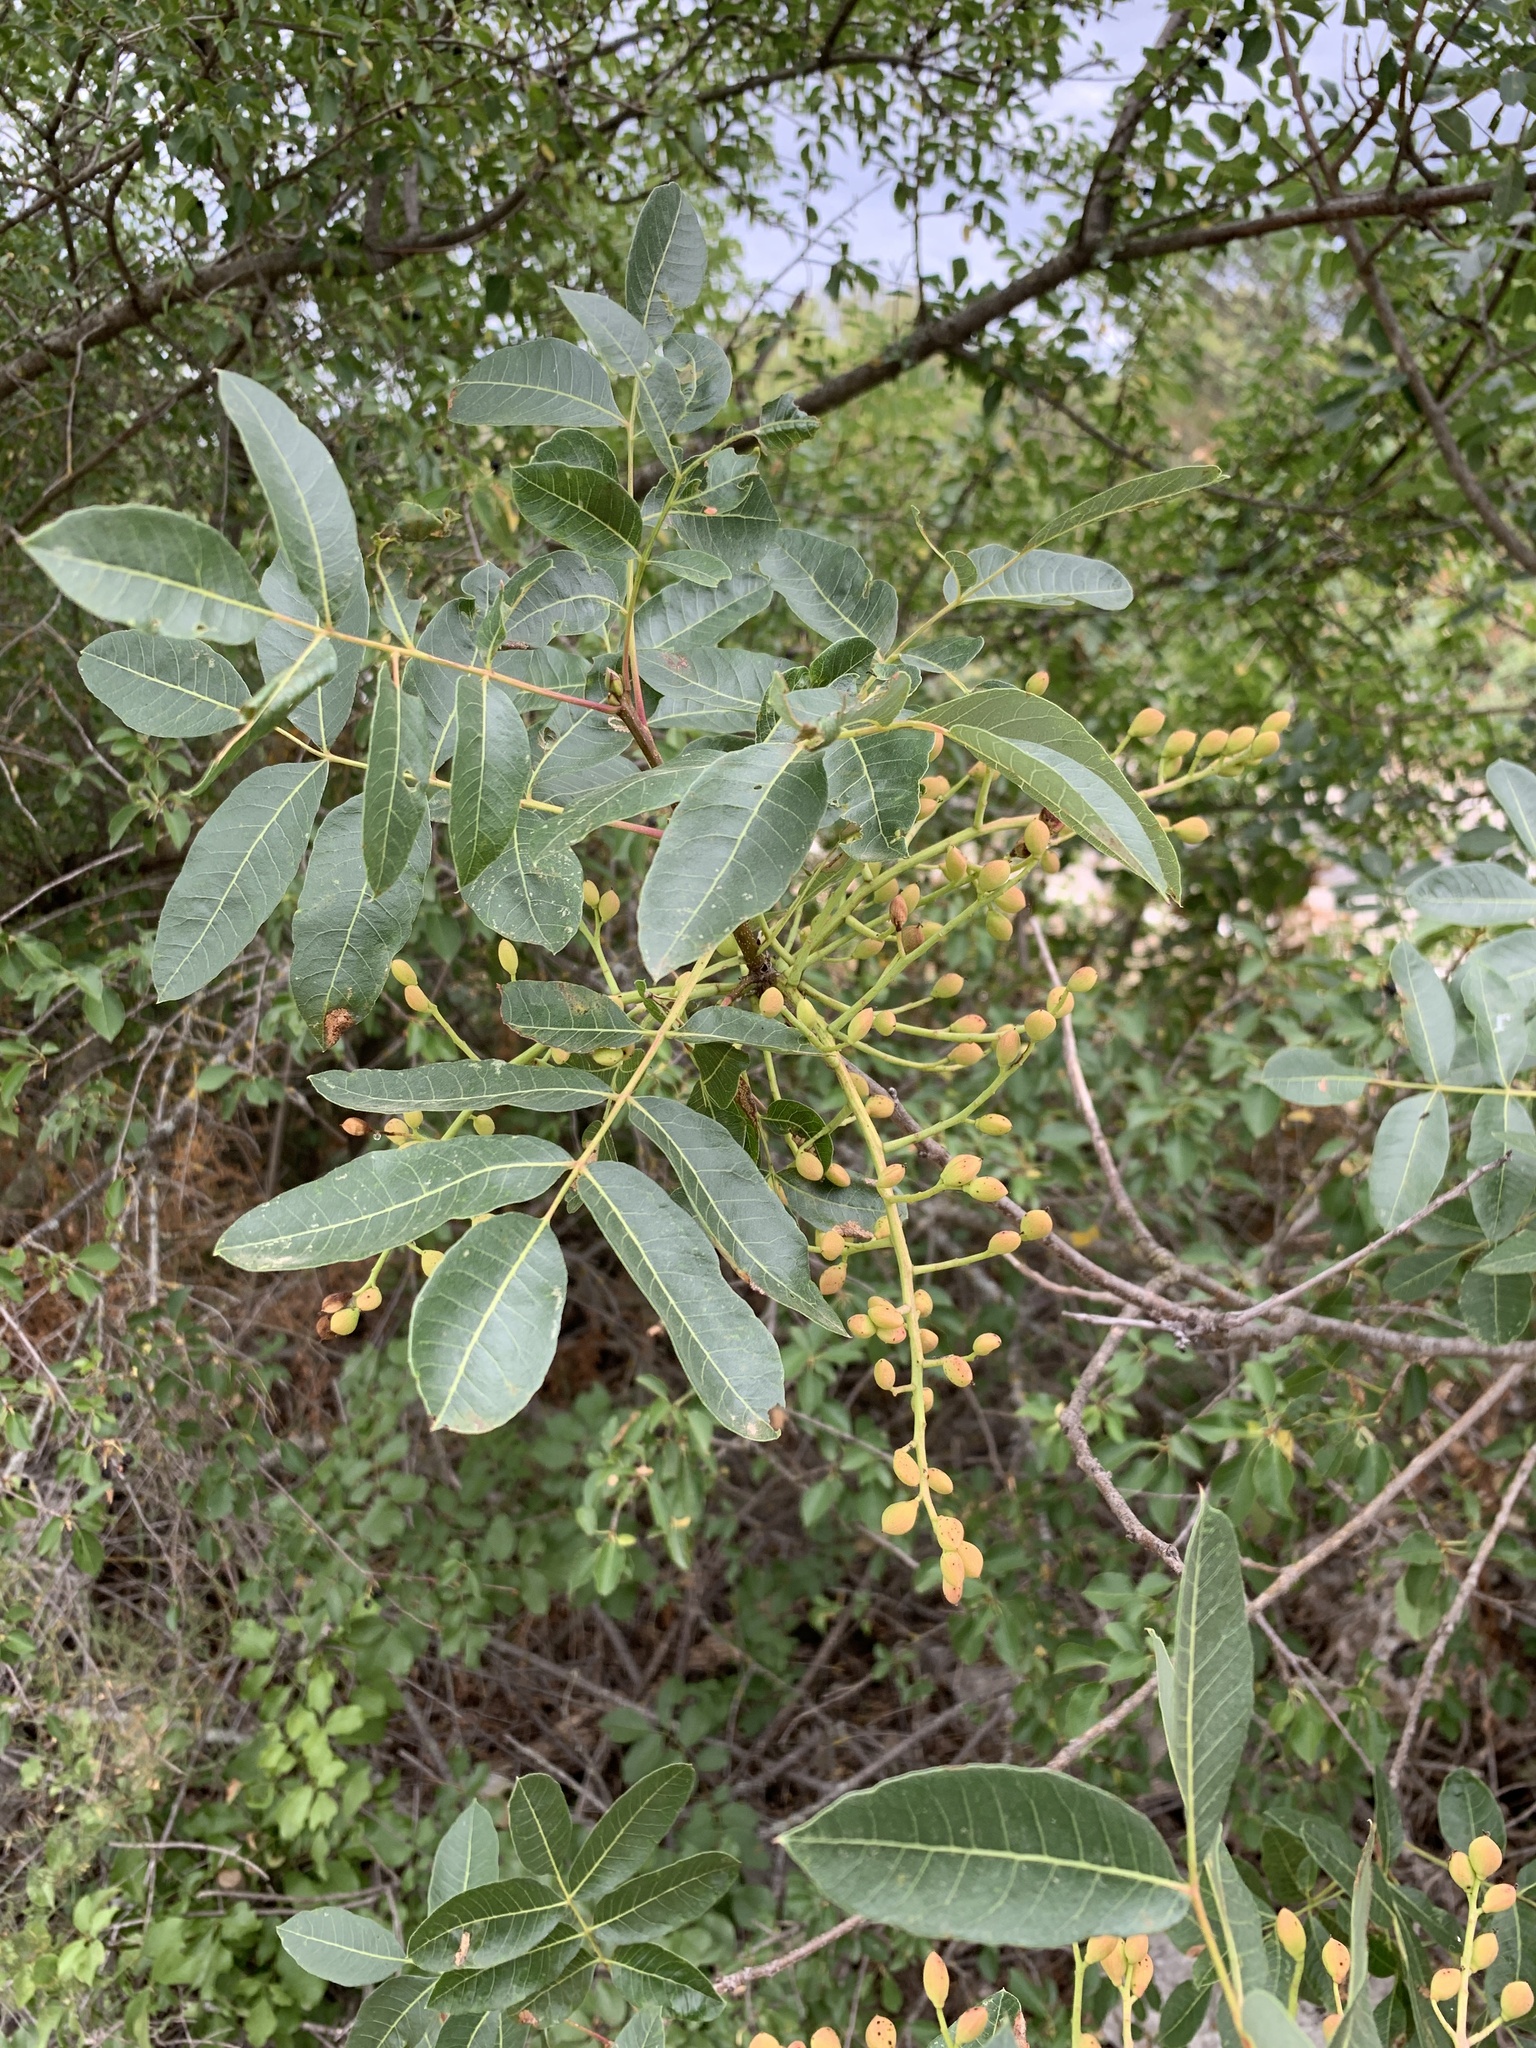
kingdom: Plantae
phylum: Tracheophyta
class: Magnoliopsida
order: Sapindales
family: Anacardiaceae
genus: Pistacia
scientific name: Pistacia terebinthus
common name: Terebinth
